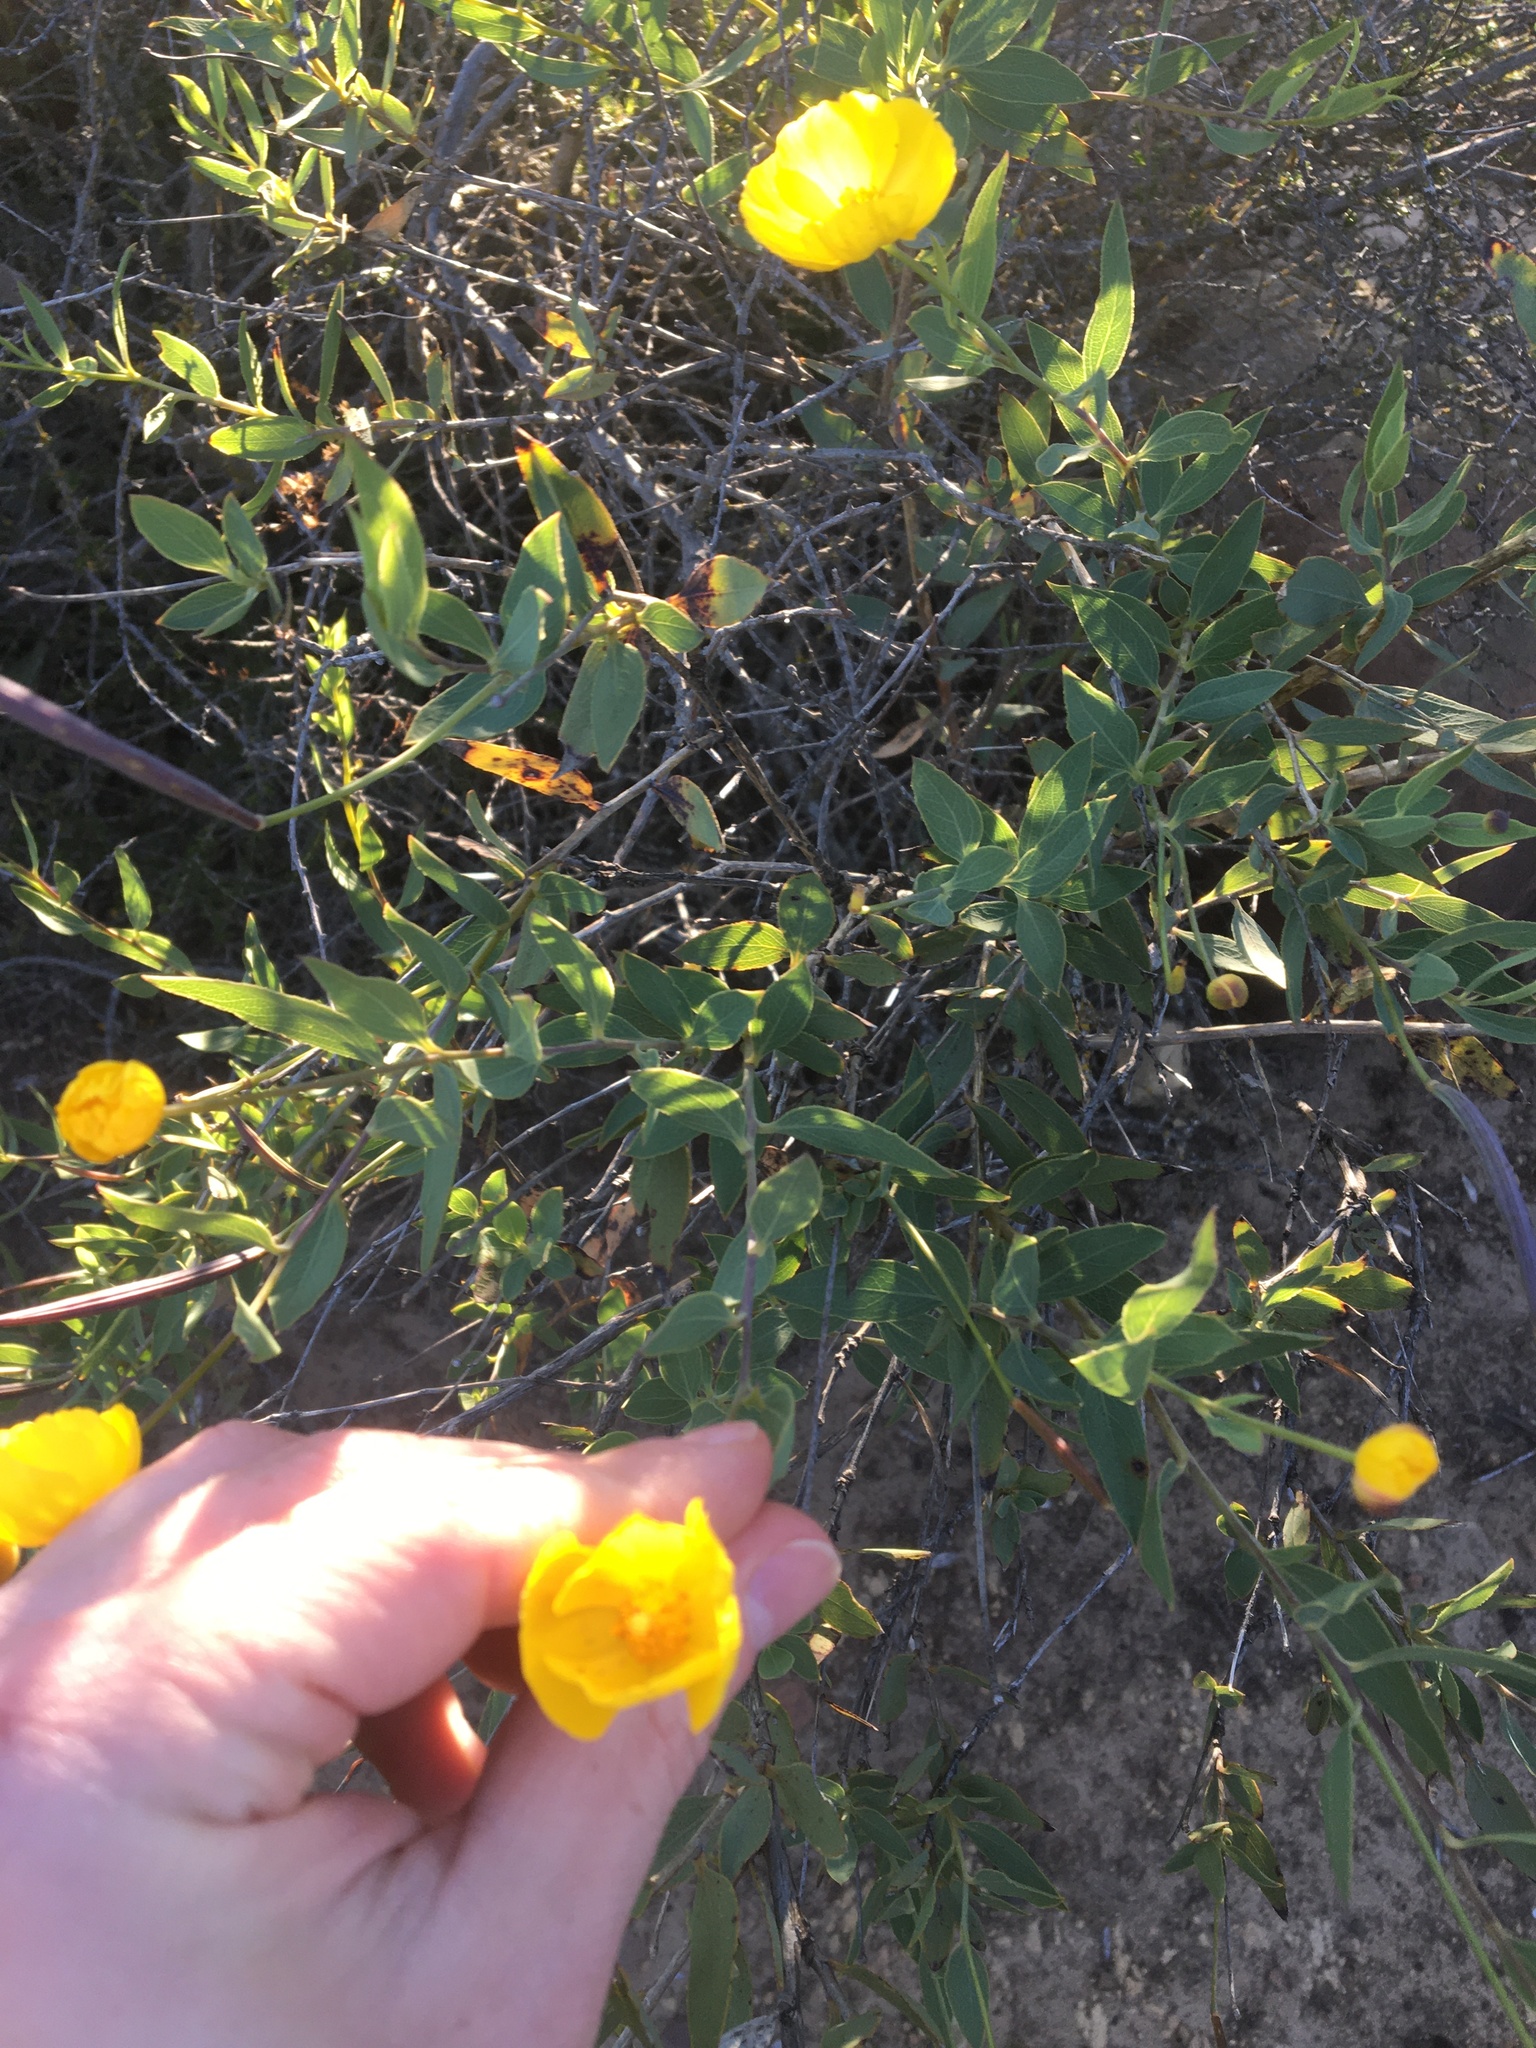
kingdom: Plantae
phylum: Tracheophyta
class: Magnoliopsida
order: Ranunculales
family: Papaveraceae
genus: Dendromecon
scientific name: Dendromecon rigida
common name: Tree poppy
